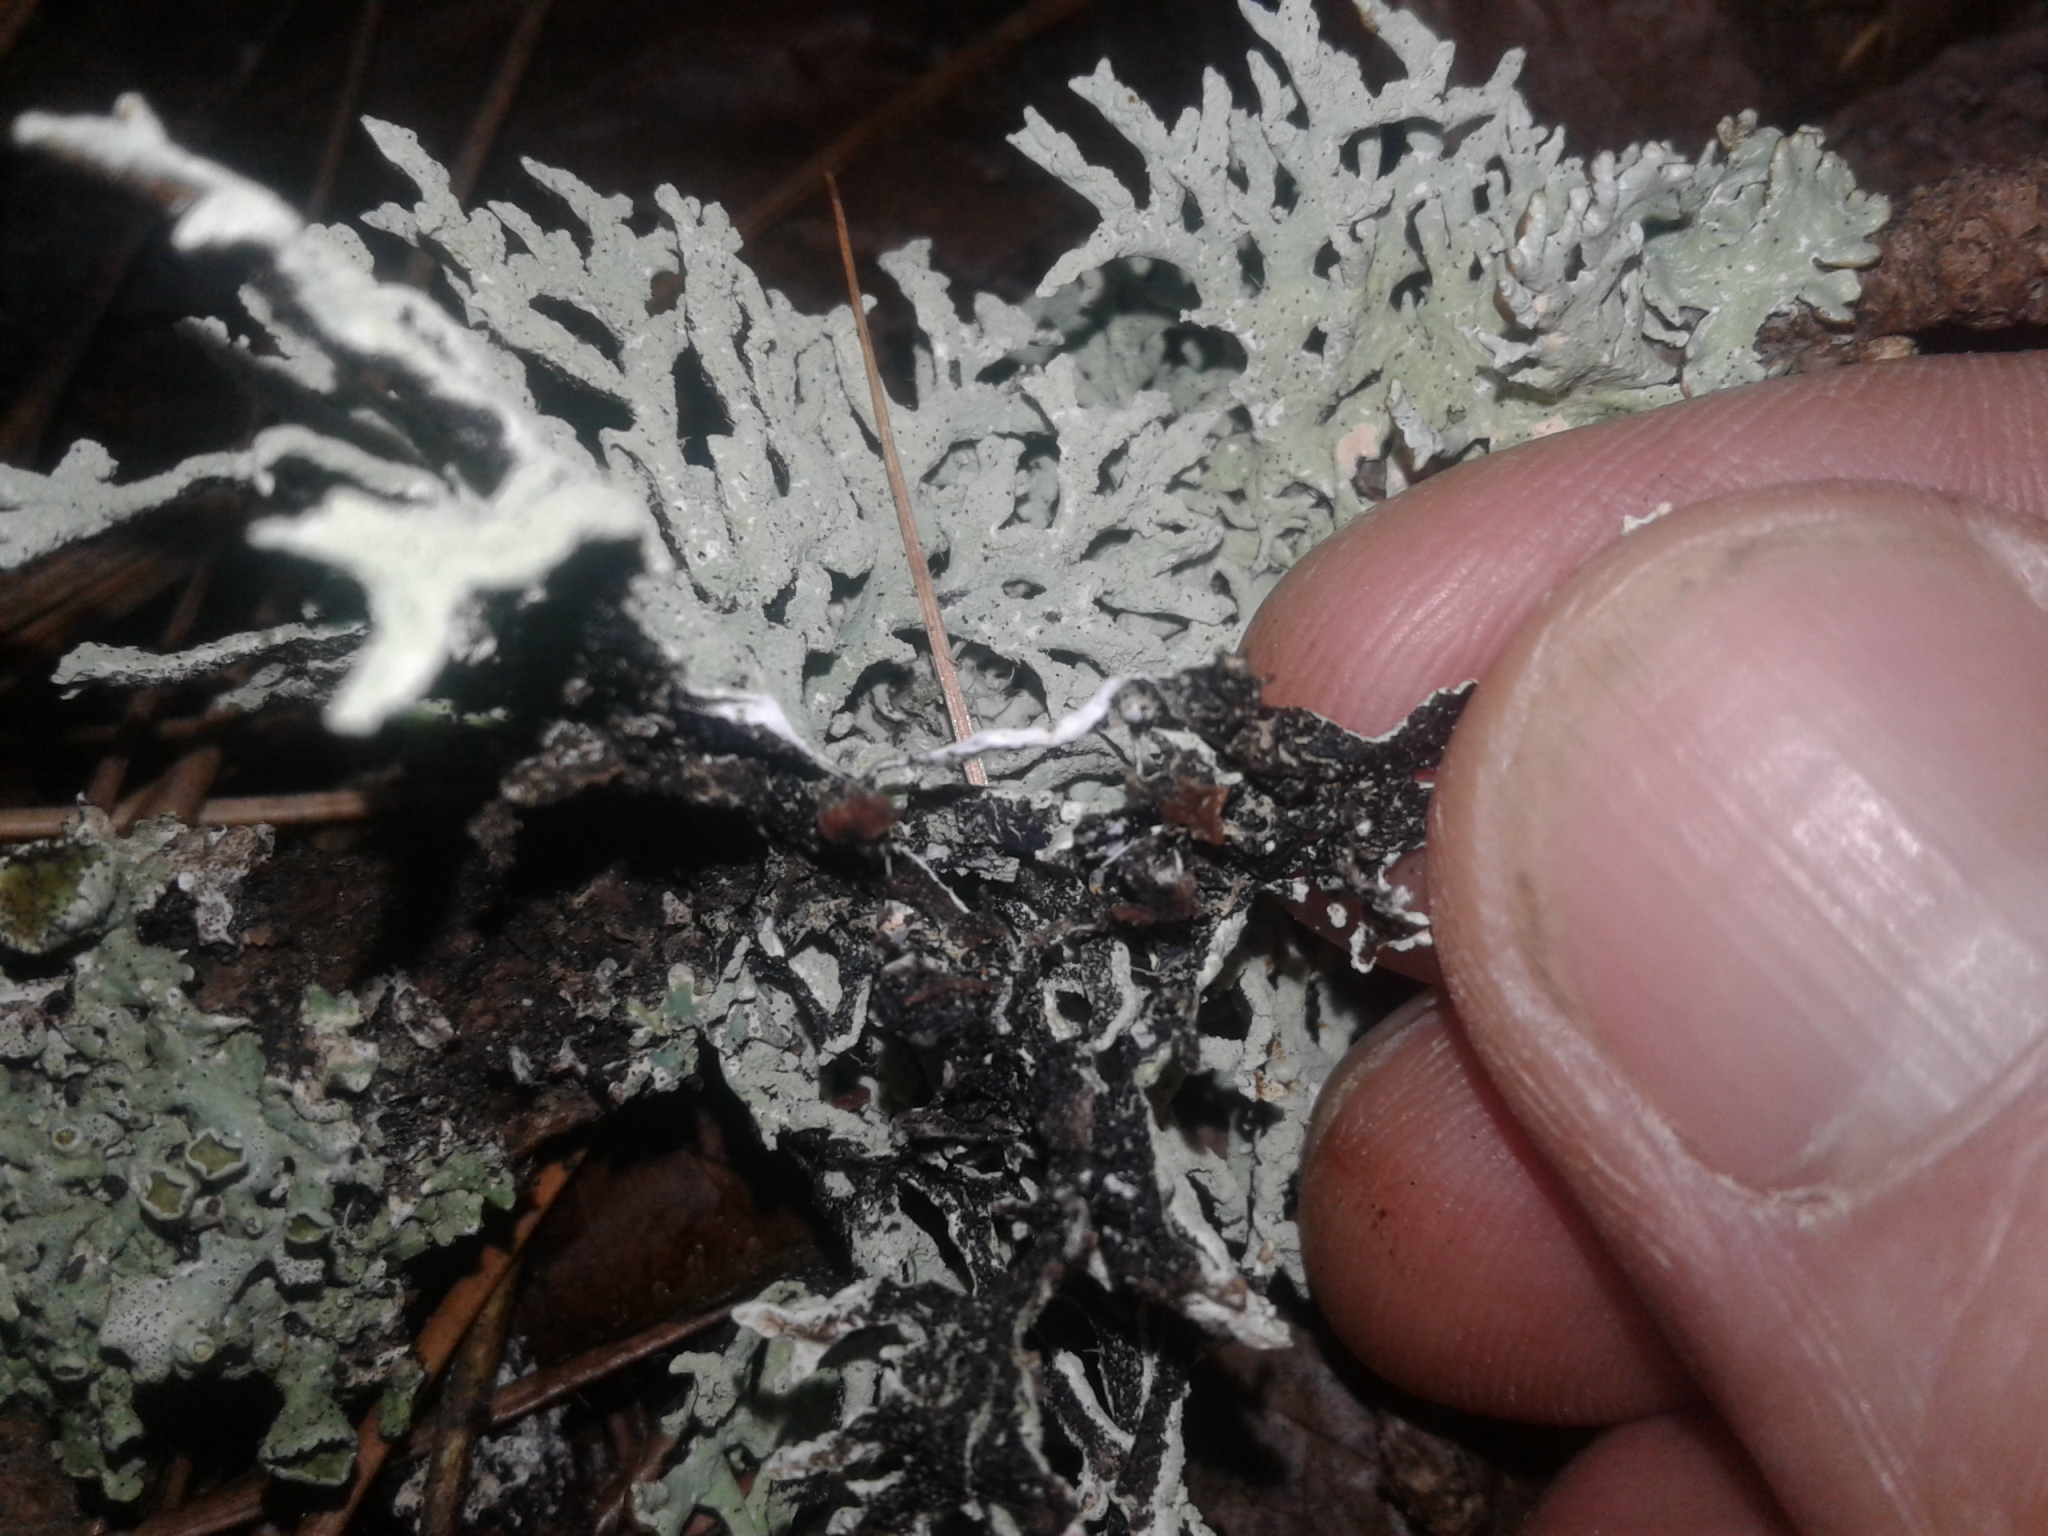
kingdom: Fungi
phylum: Ascomycota
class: Lecanoromycetes
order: Lecanorales
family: Parmeliaceae
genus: Hypogymnia
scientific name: Hypogymnia subphysodes
